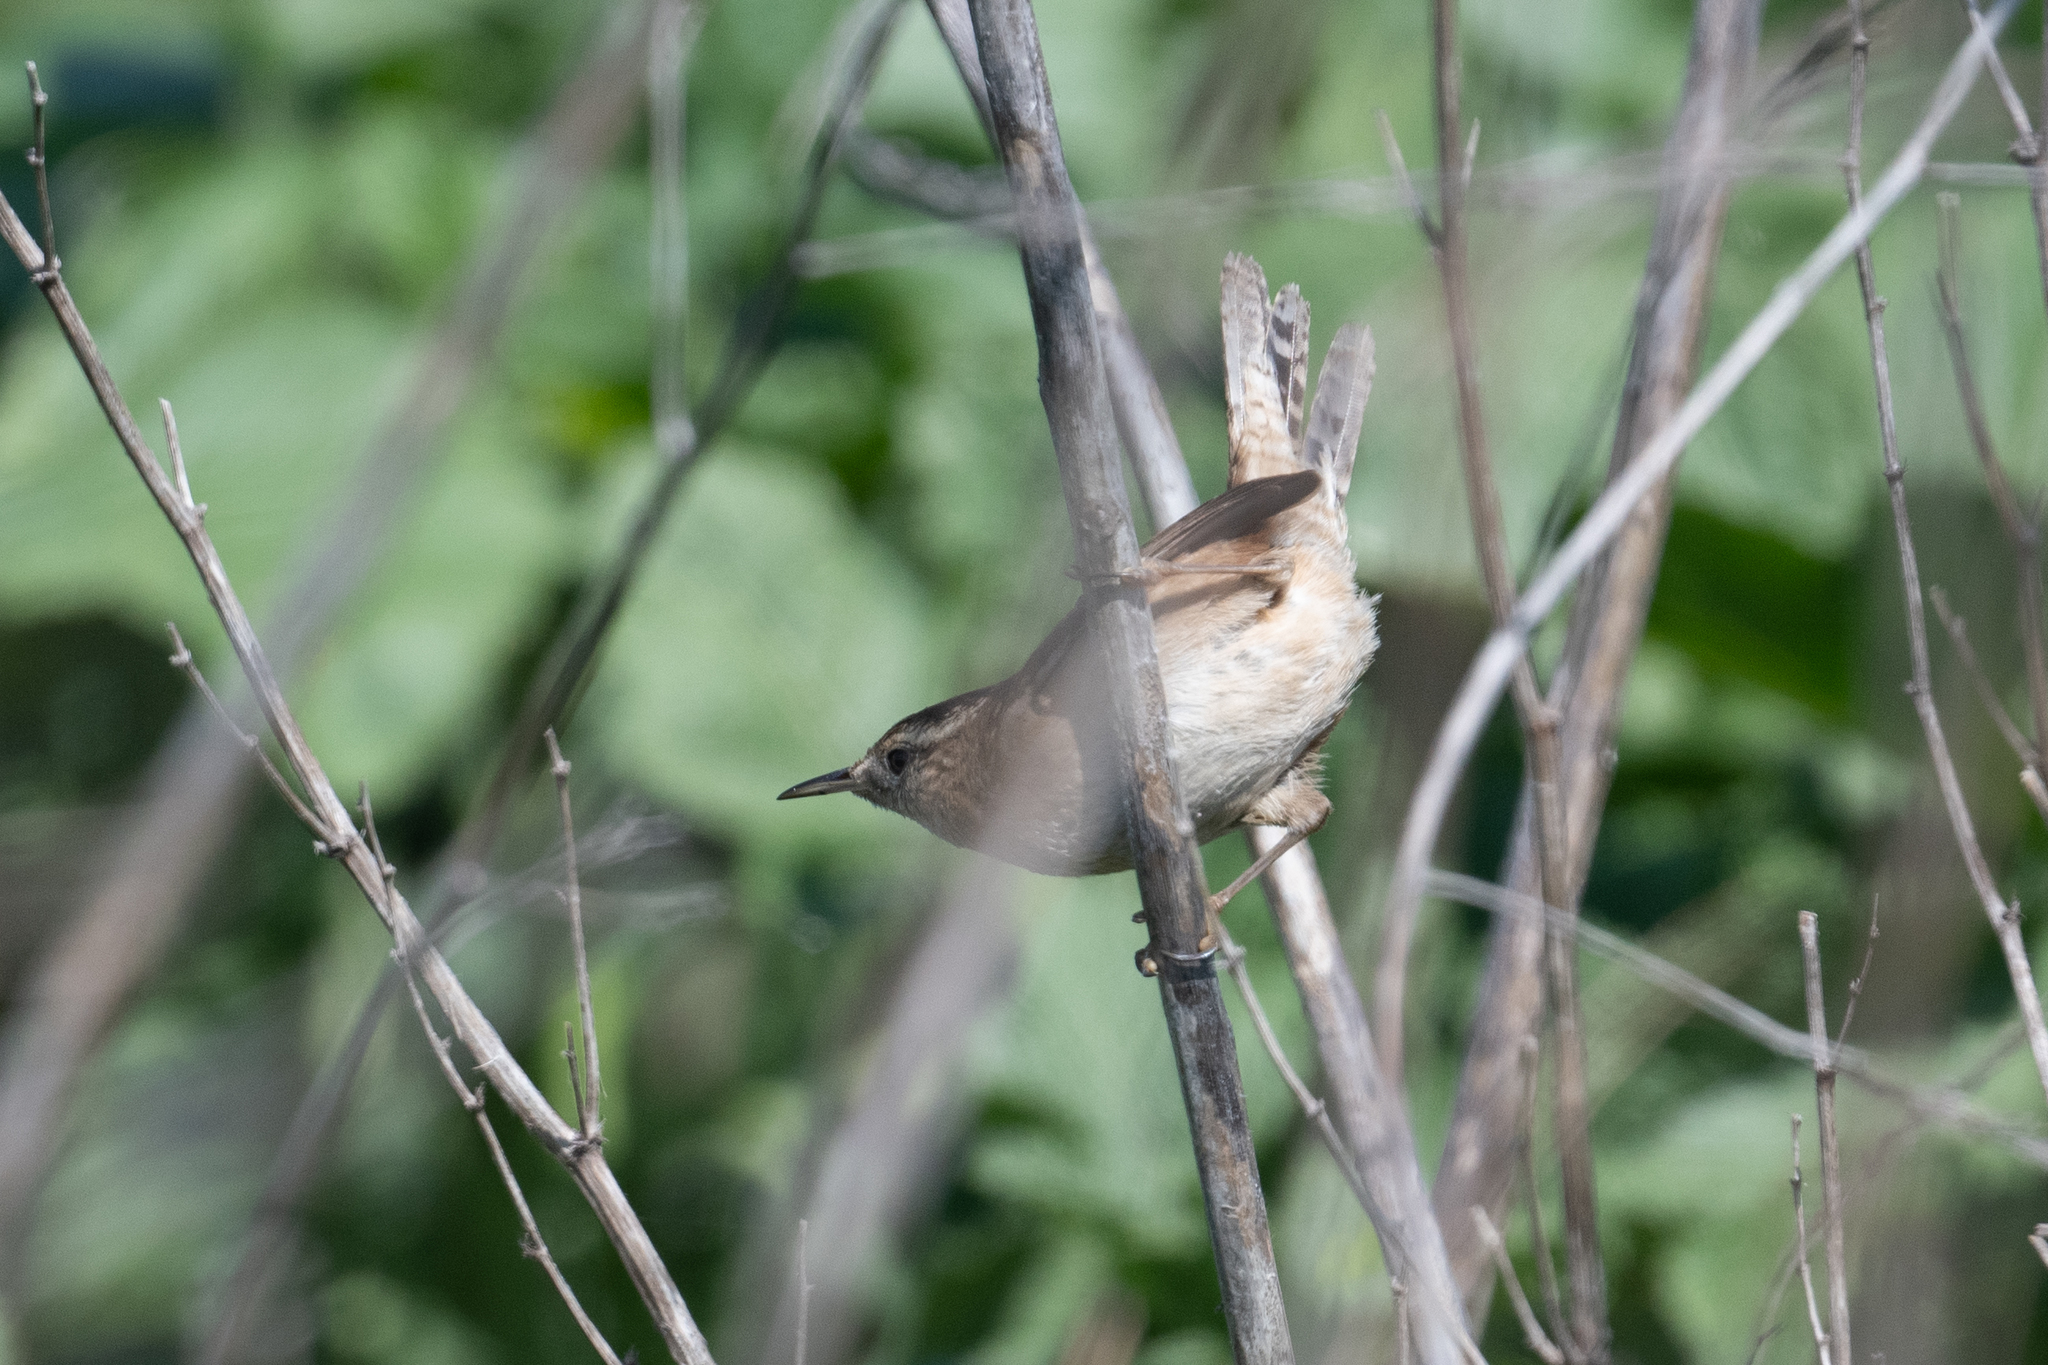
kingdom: Animalia
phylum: Chordata
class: Aves
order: Passeriformes
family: Troglodytidae
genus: Cistothorus
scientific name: Cistothorus palustris
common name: Marsh wren
